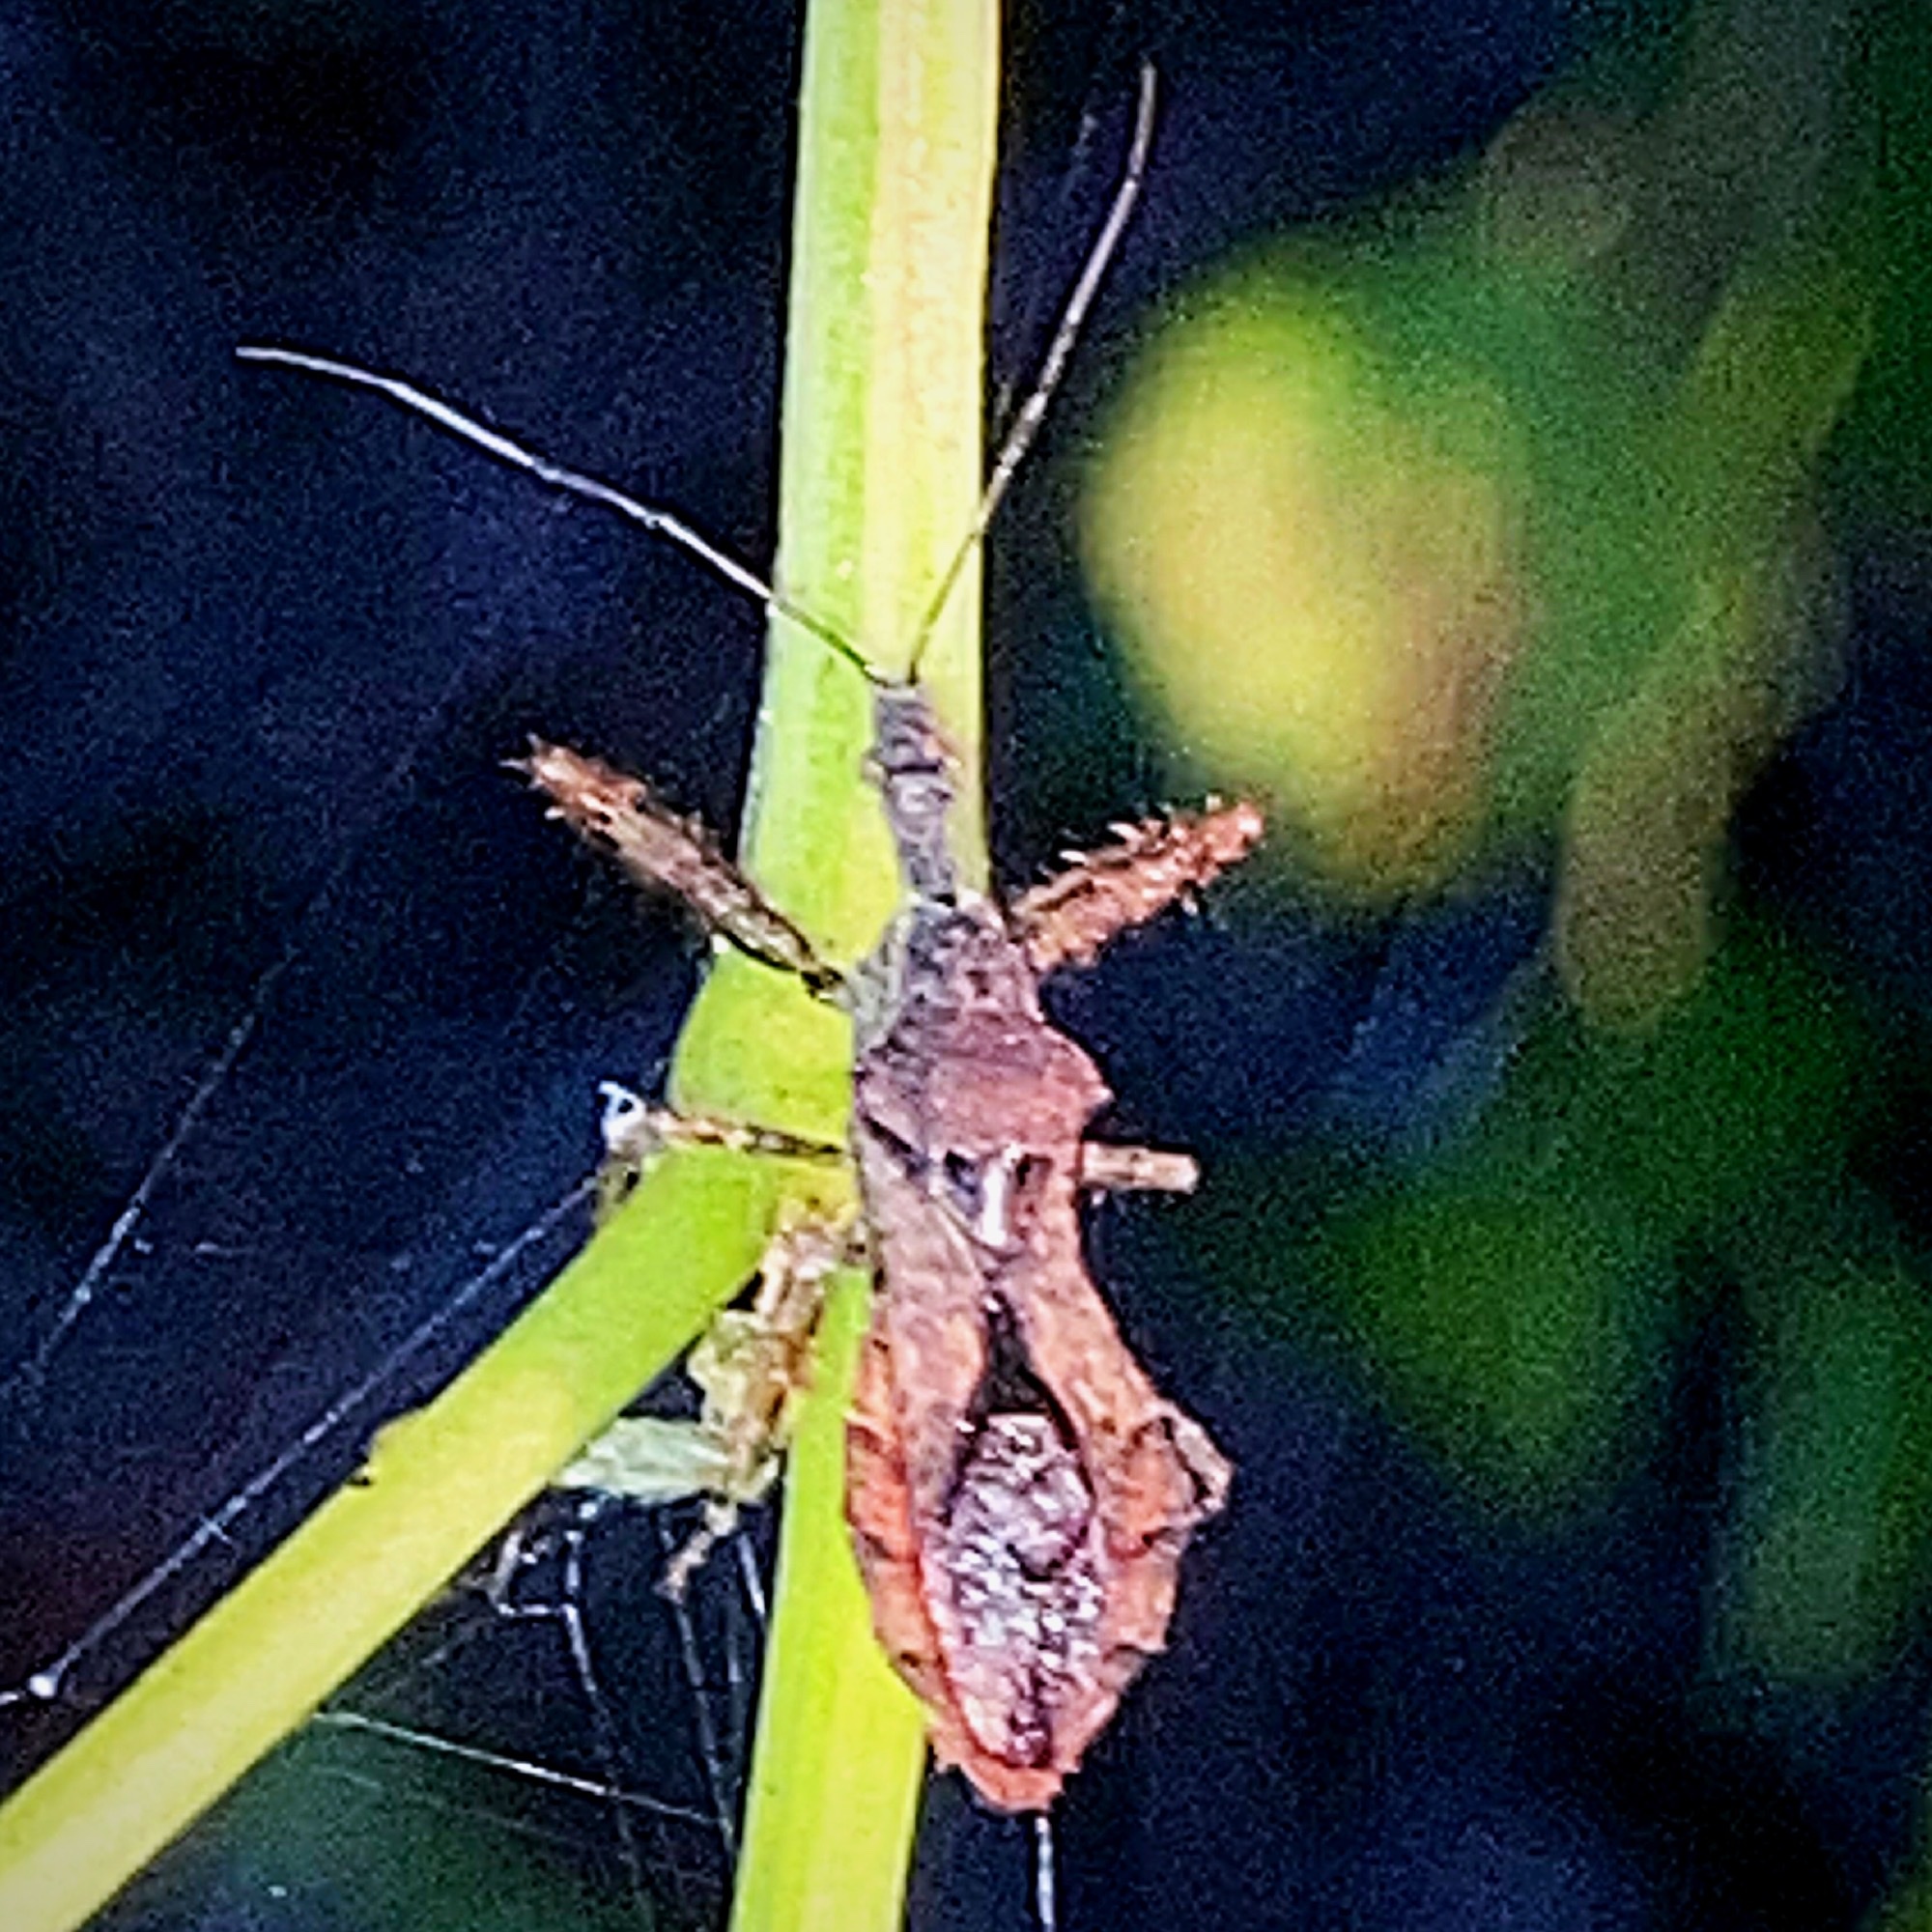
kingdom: Animalia
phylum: Arthropoda
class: Insecta
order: Hemiptera
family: Reduviidae
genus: Sinea
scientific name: Sinea spinipes
